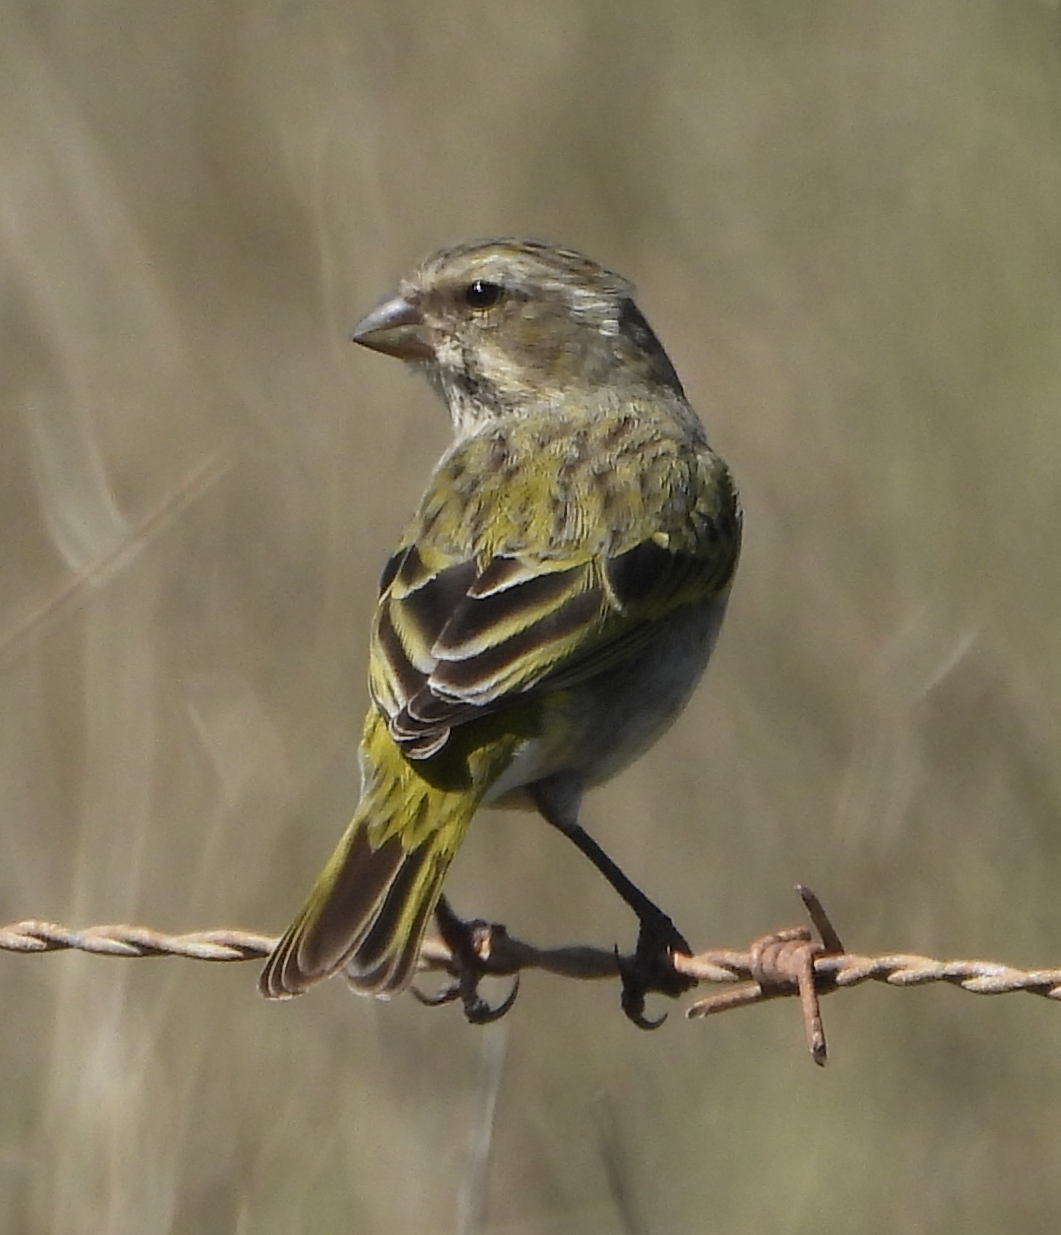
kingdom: Animalia
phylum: Chordata
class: Aves
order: Passeriformes
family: Fringillidae
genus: Crithagra
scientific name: Crithagra flaviventris
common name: Yellow canary
